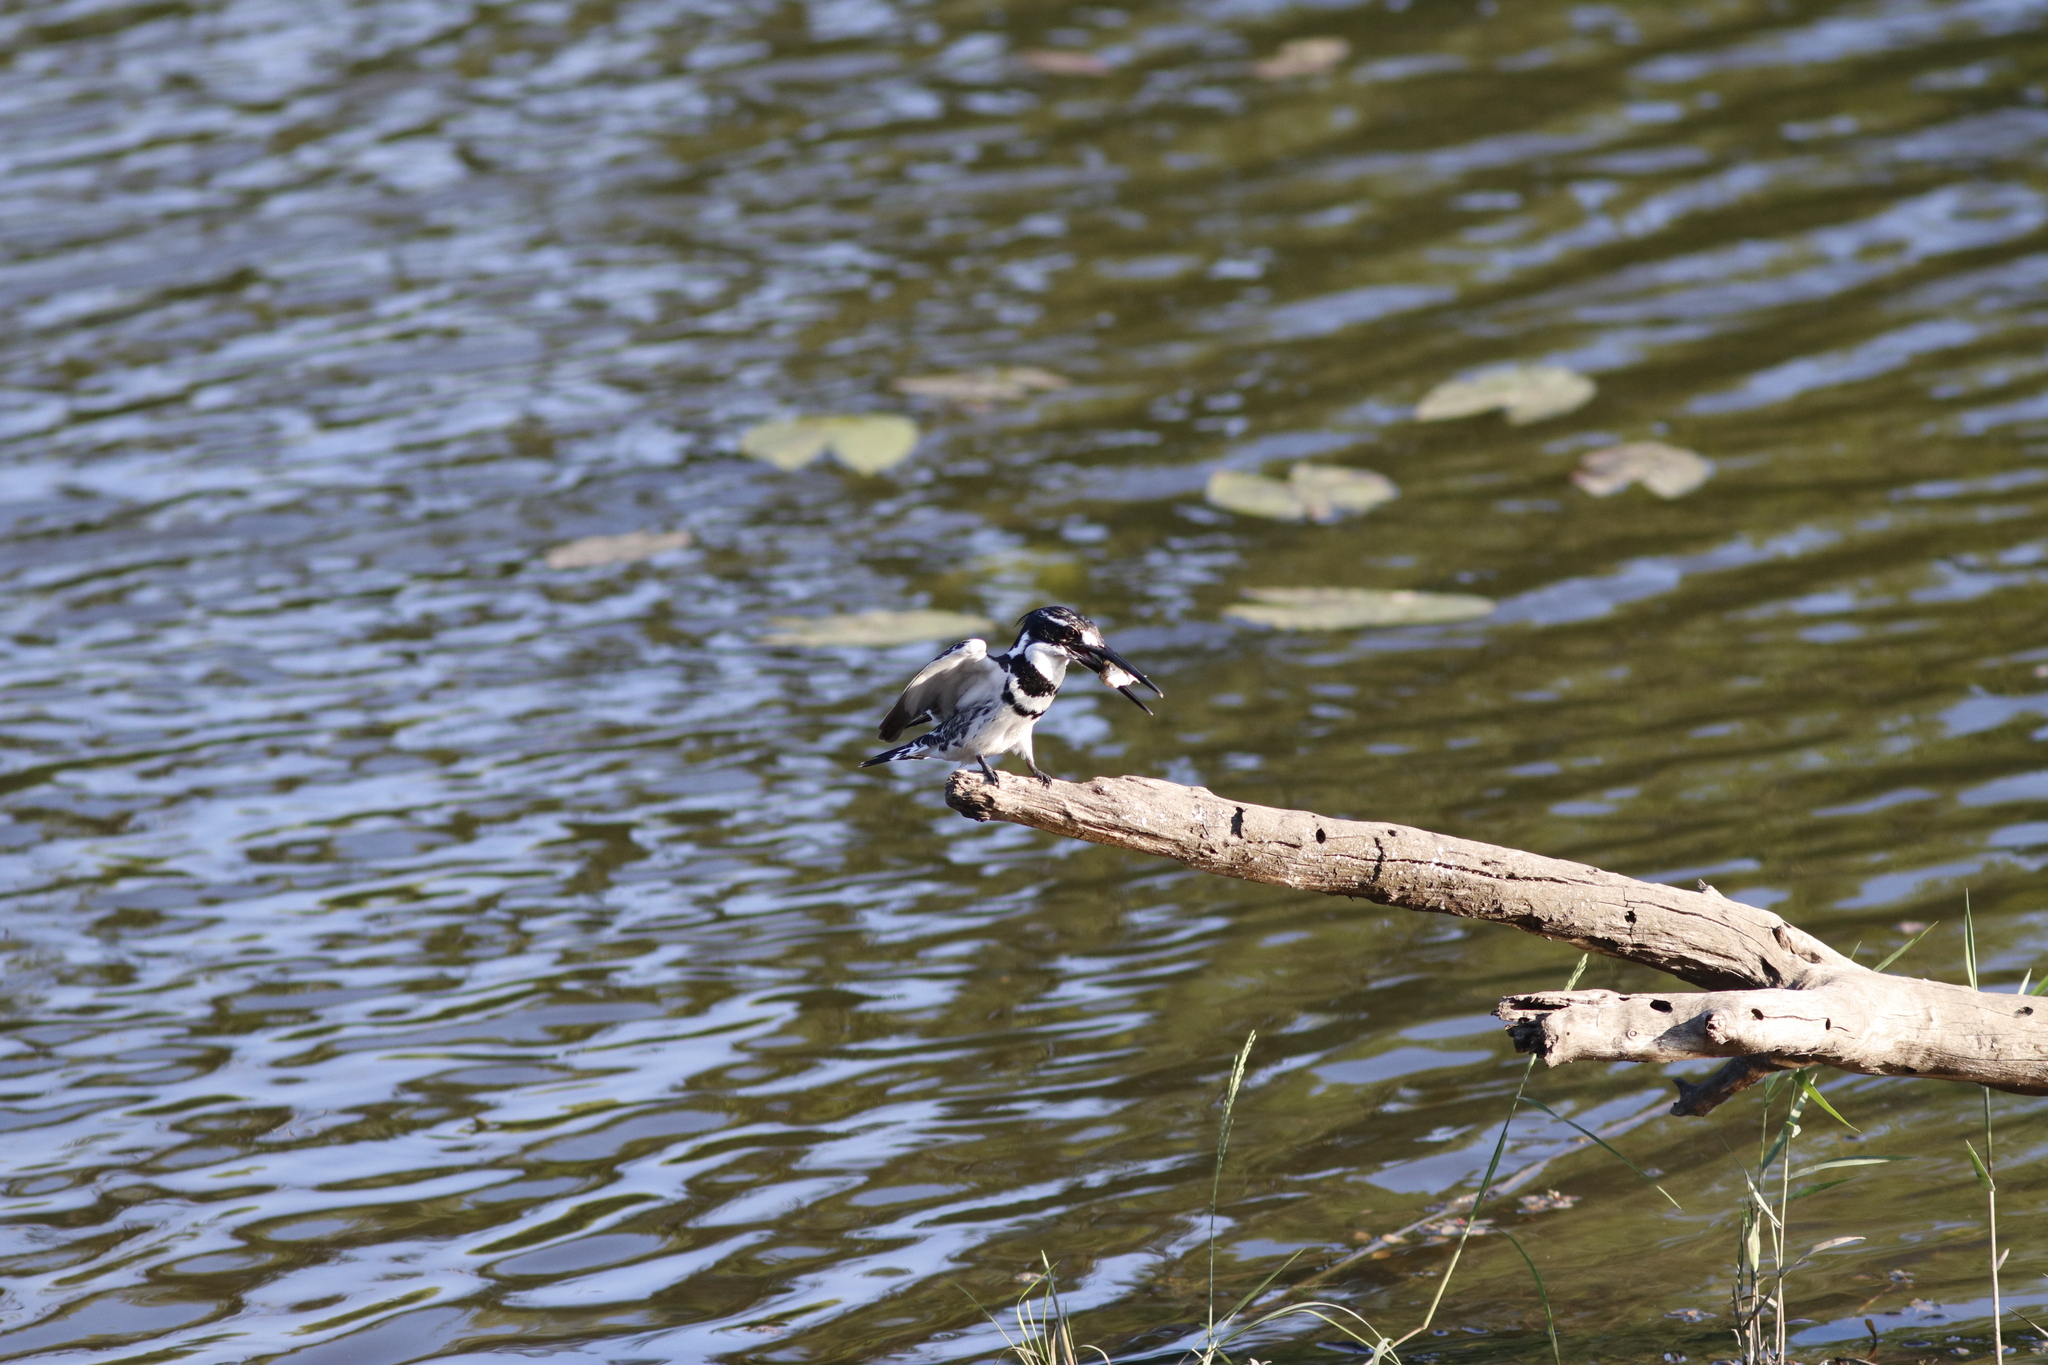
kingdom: Animalia
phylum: Chordata
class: Aves
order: Coraciiformes
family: Alcedinidae
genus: Ceryle
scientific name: Ceryle rudis
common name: Pied kingfisher
